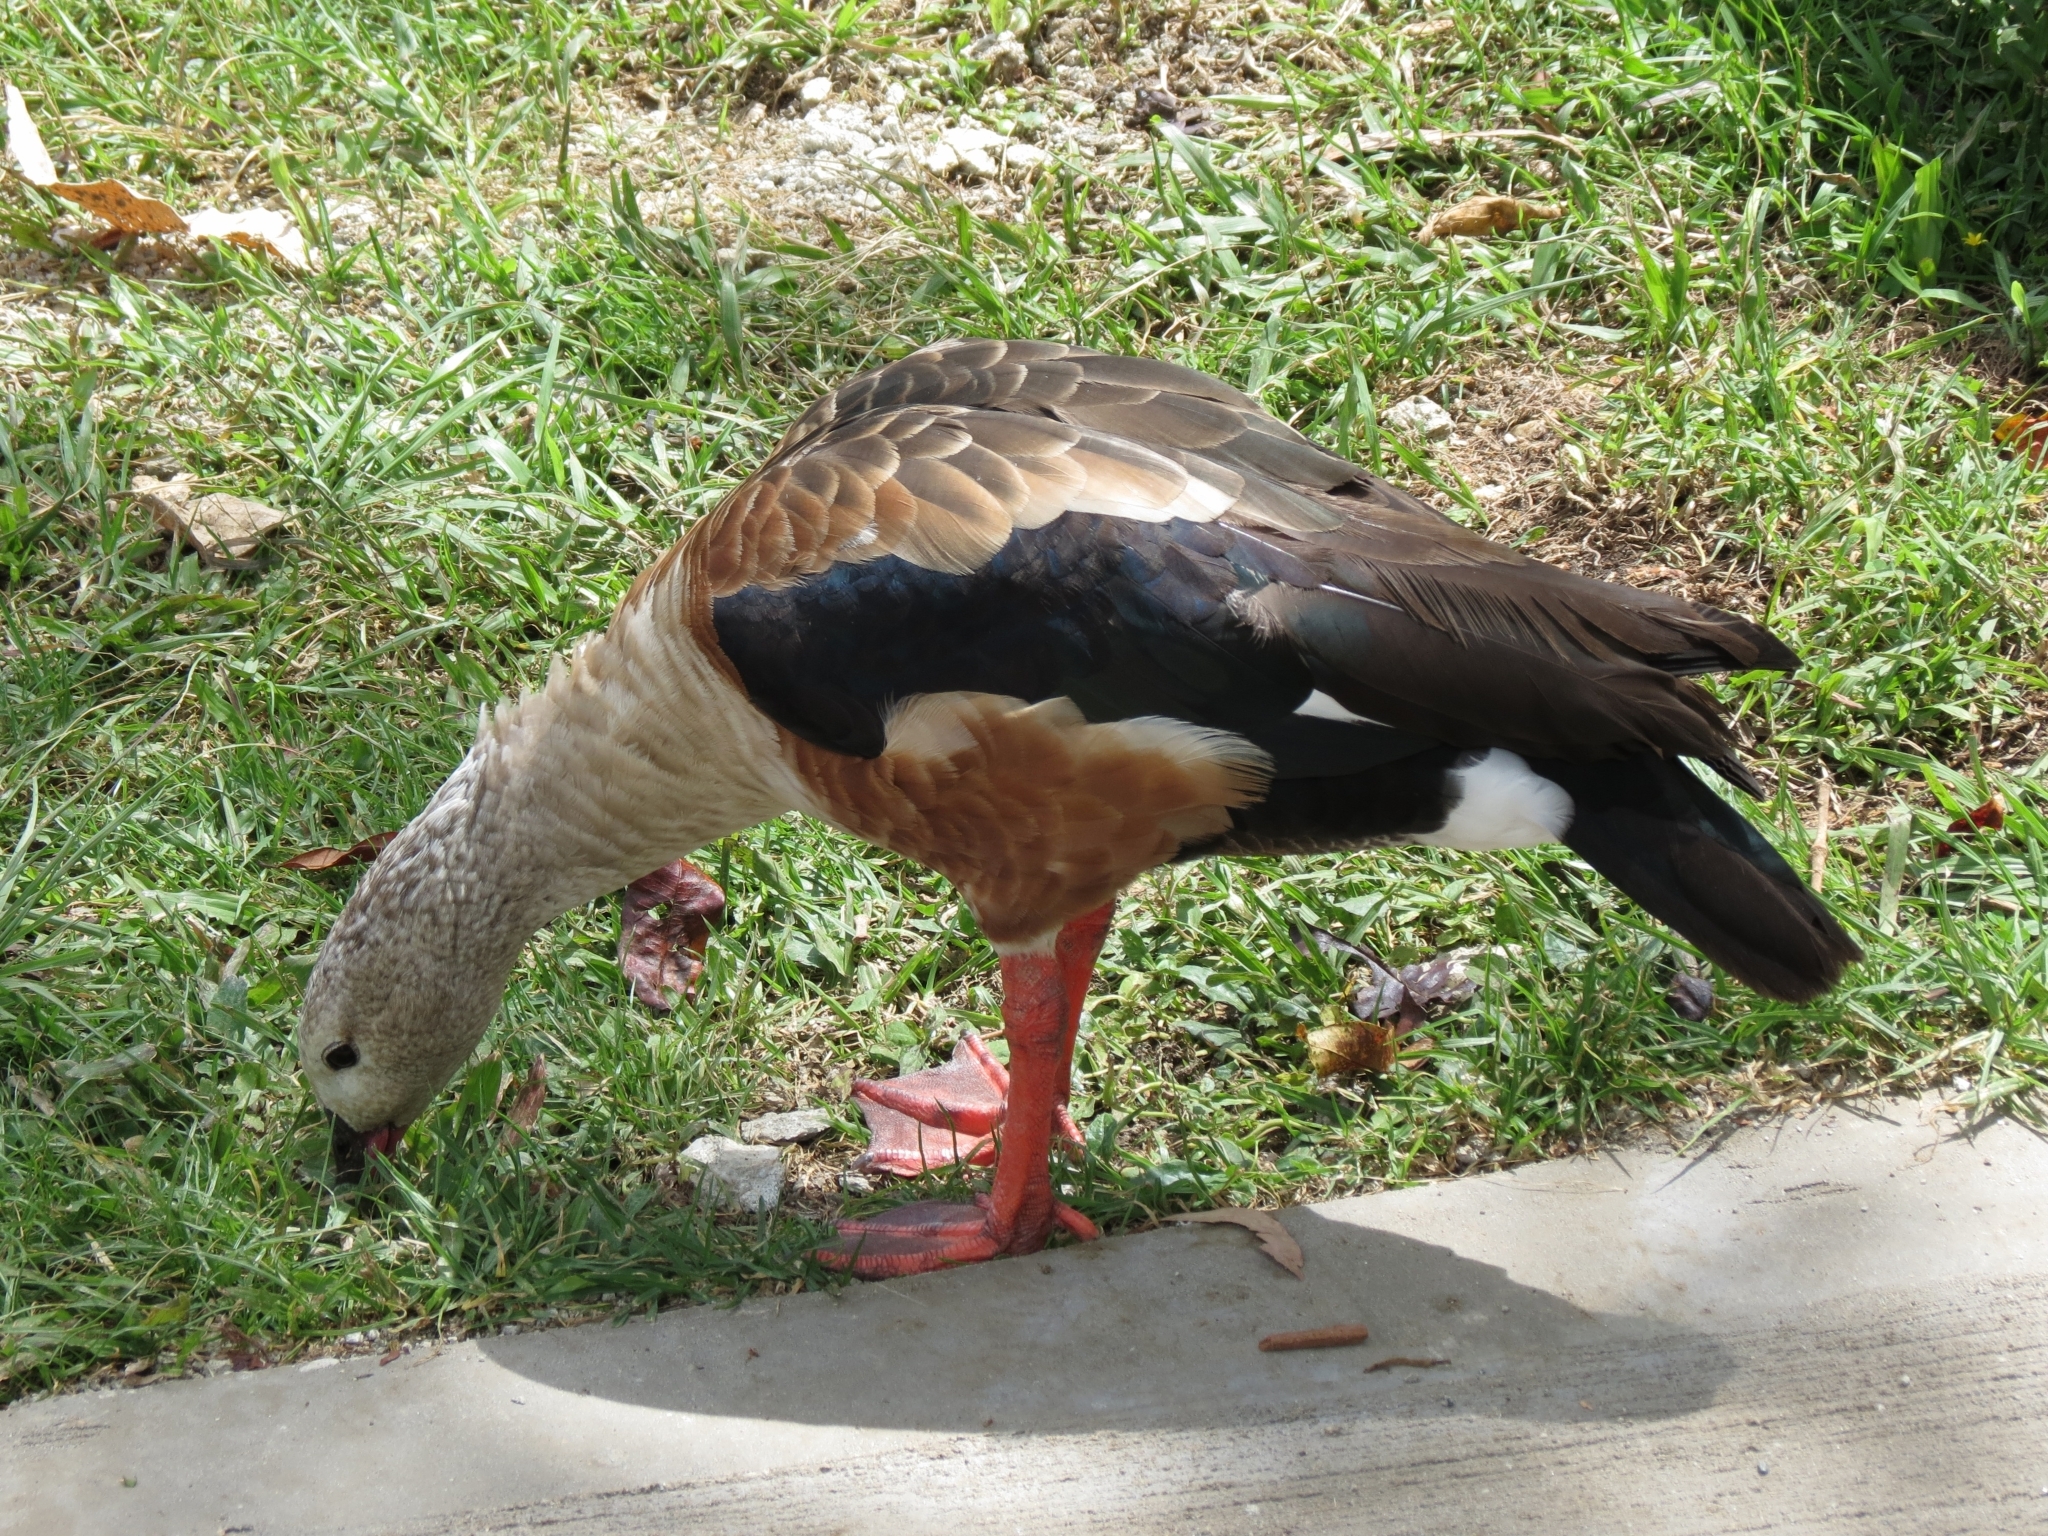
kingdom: Animalia
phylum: Chordata
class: Aves
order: Anseriformes
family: Anatidae
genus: Oressochen
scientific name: Oressochen jubatus
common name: Orinoco goose
